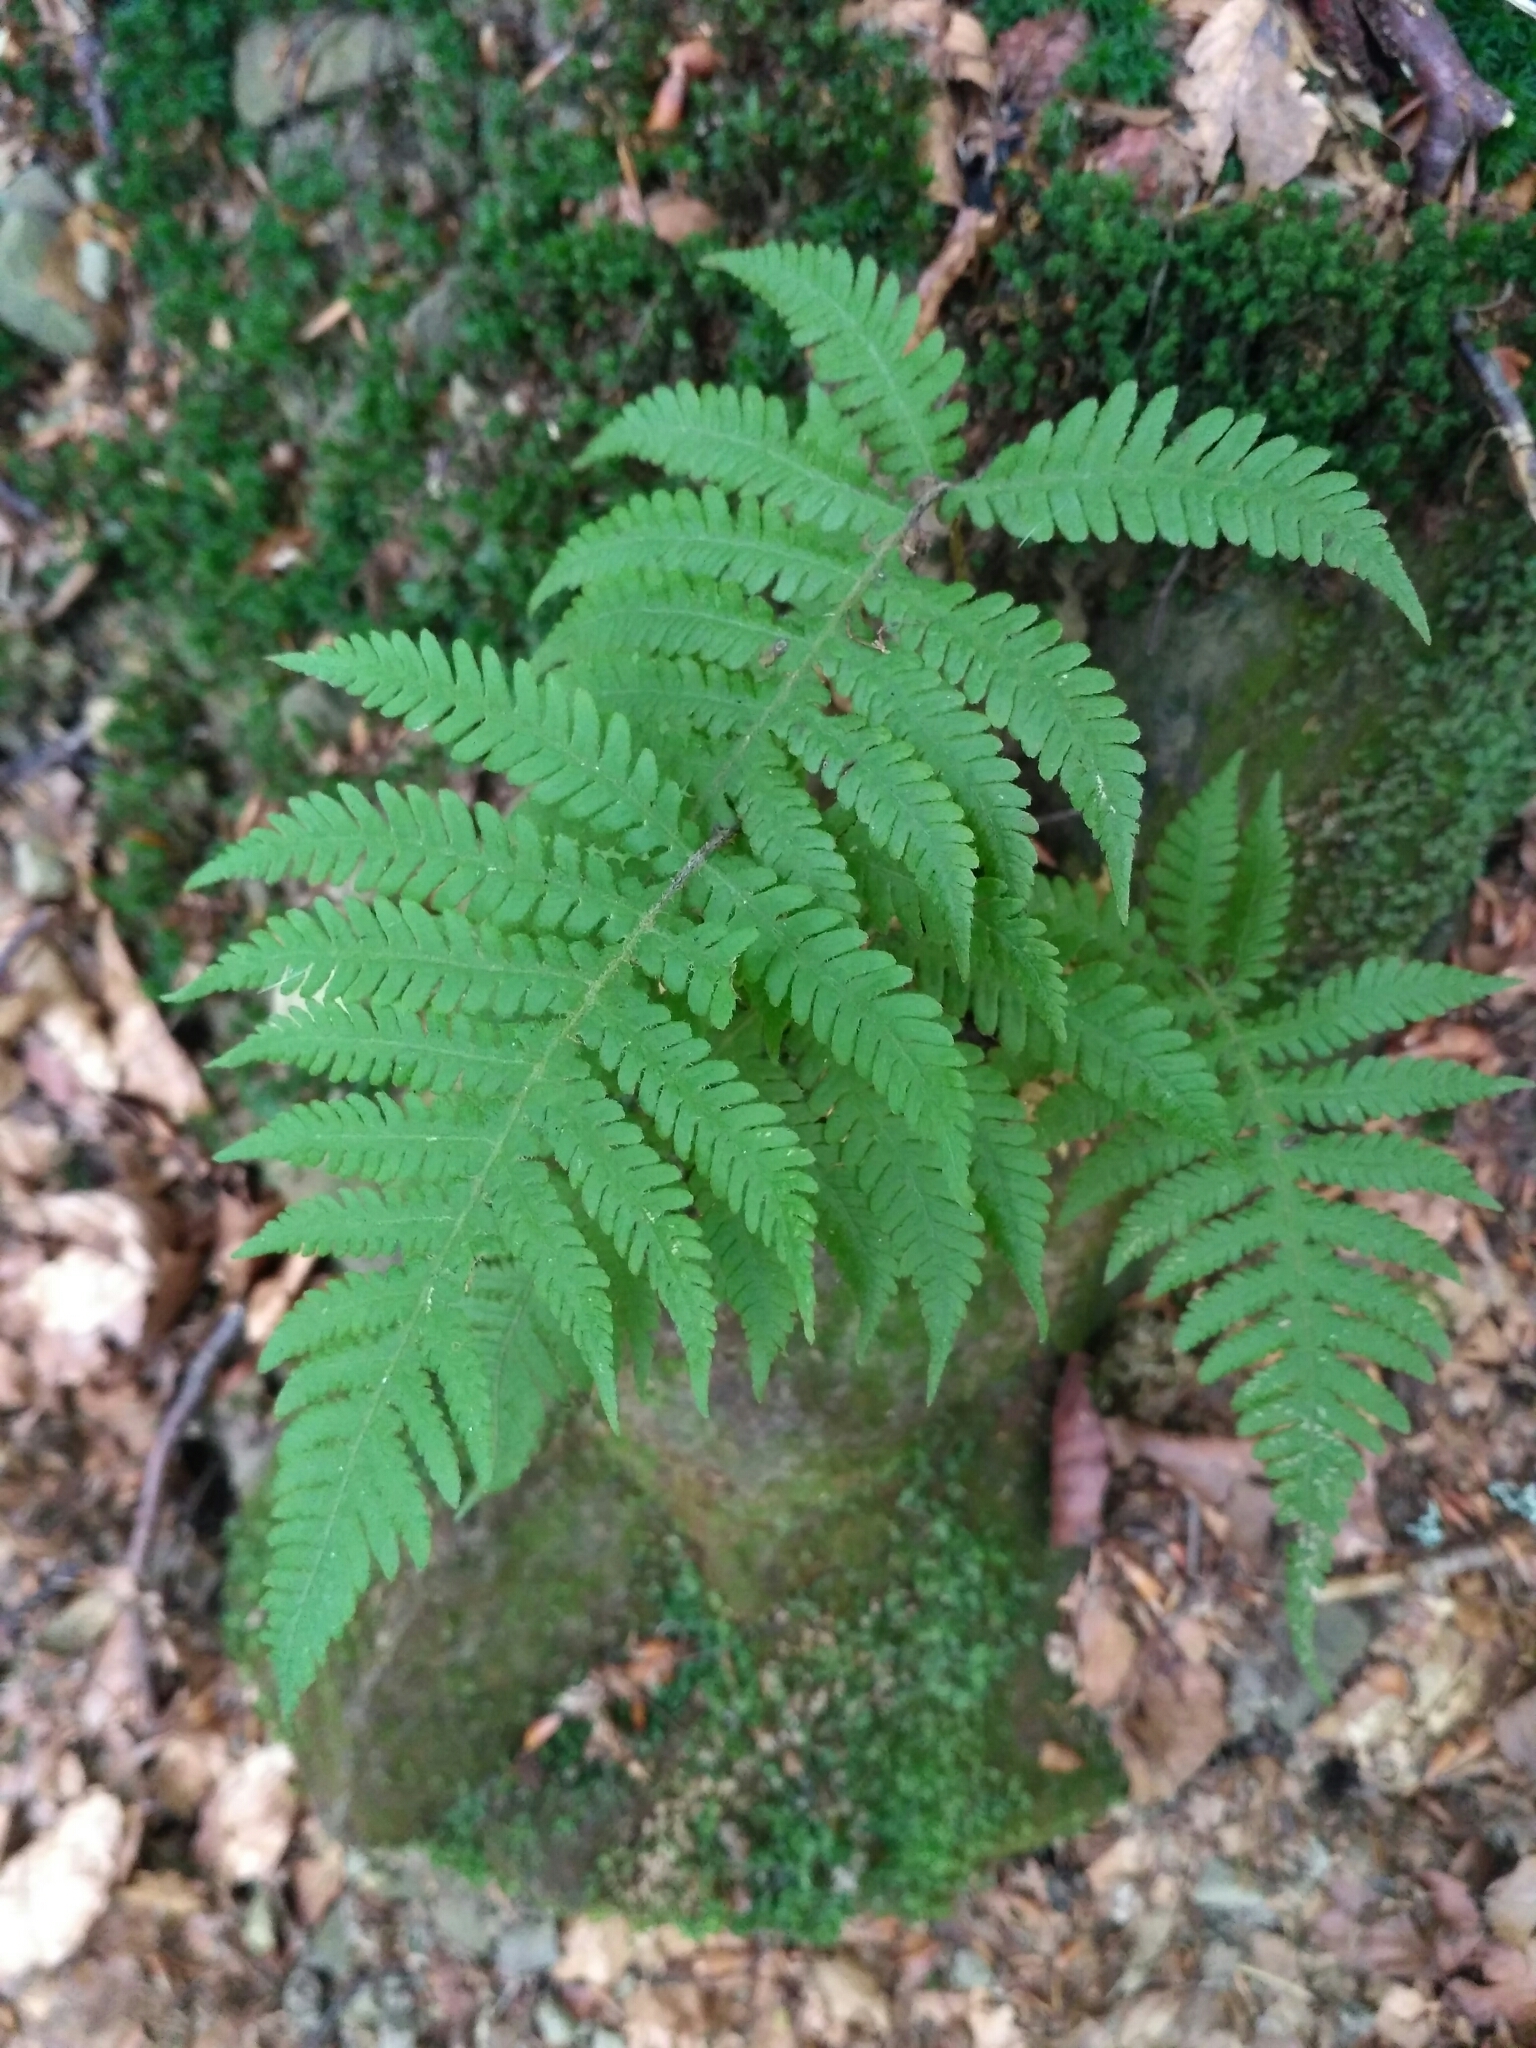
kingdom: Plantae
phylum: Tracheophyta
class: Polypodiopsida
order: Polypodiales
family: Thelypteridaceae
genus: Phegopteris
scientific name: Phegopteris connectilis
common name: Beech fern
